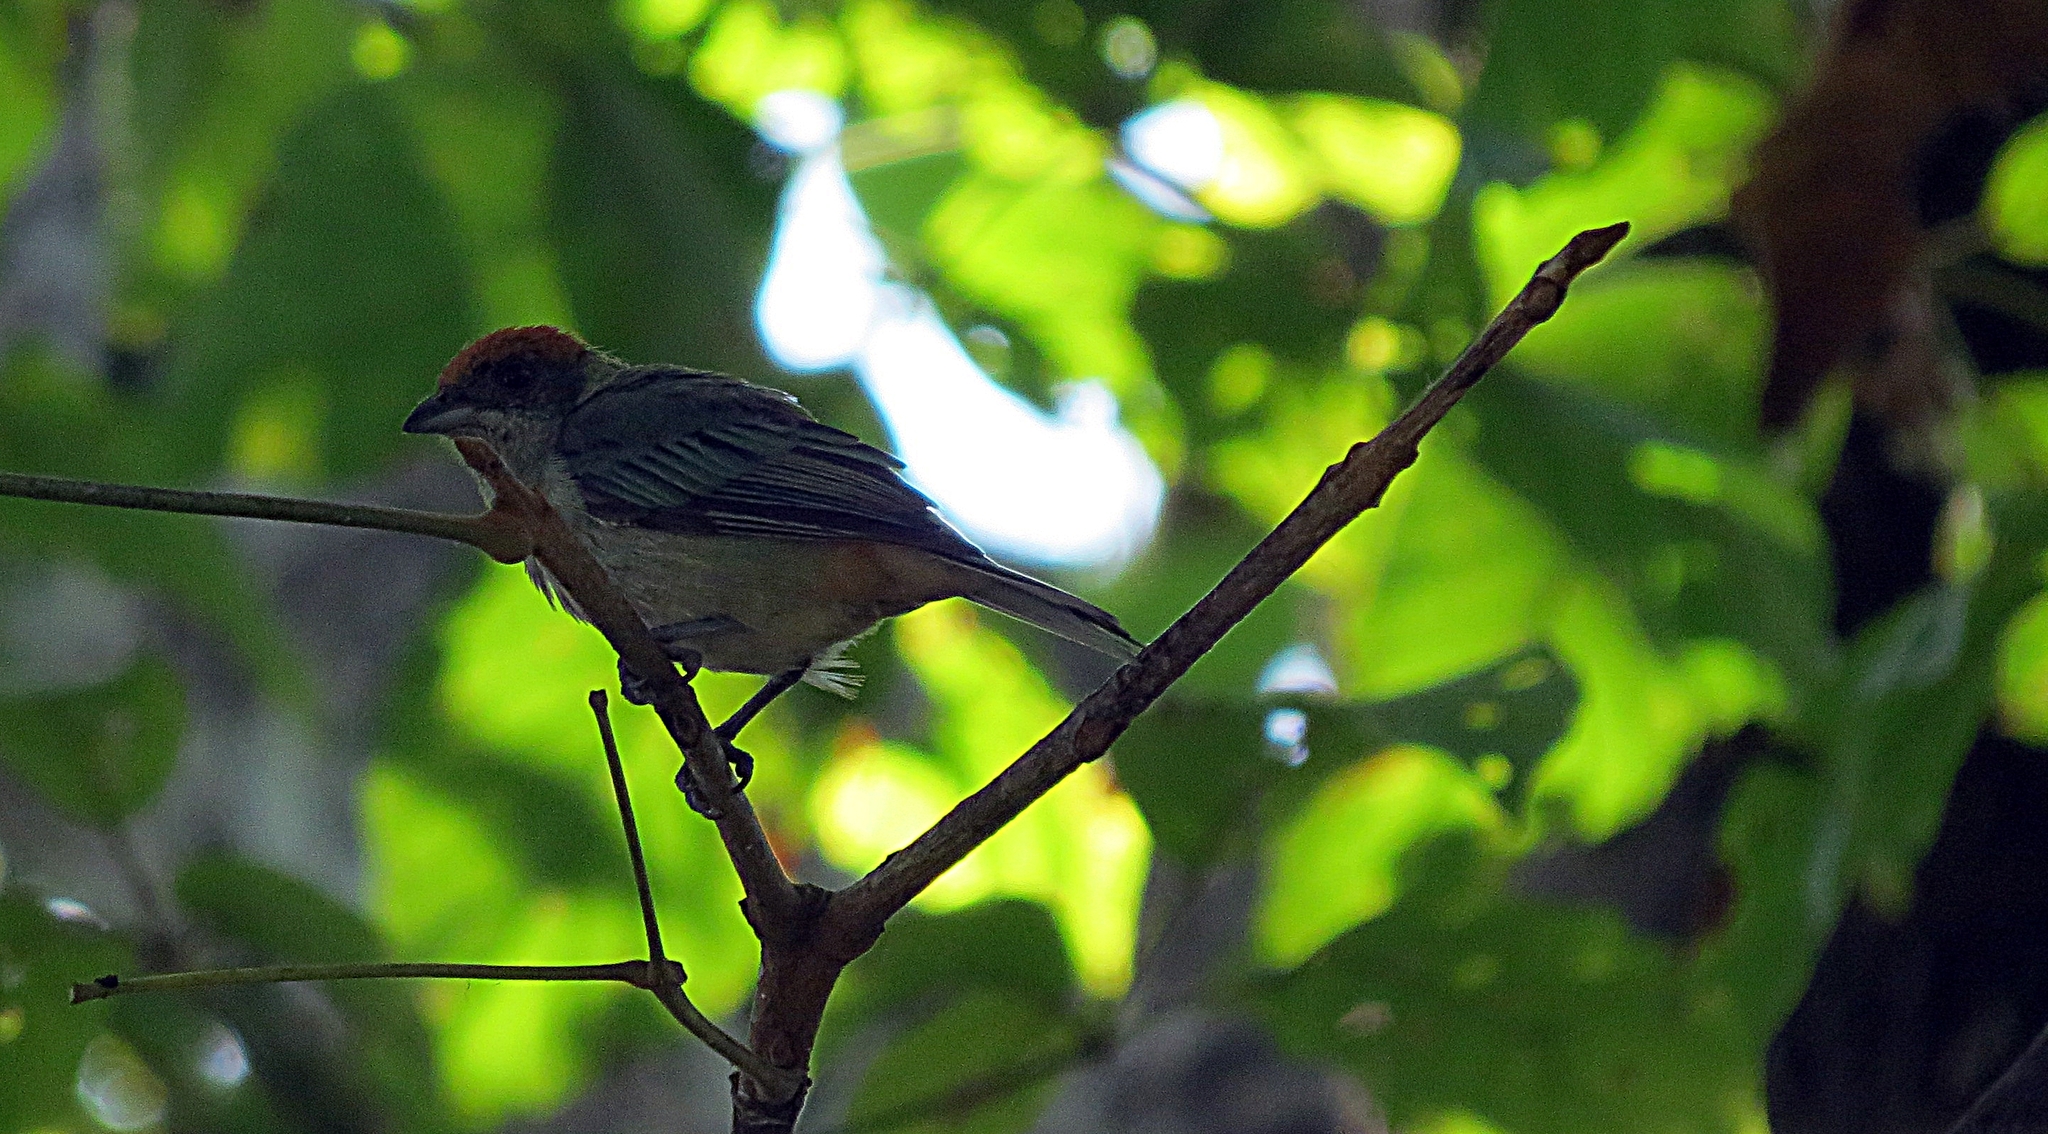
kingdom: Animalia
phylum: Chordata
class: Aves
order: Passeriformes
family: Thraupidae
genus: Stilpnia
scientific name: Stilpnia vitriolina
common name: Scrub tanager
